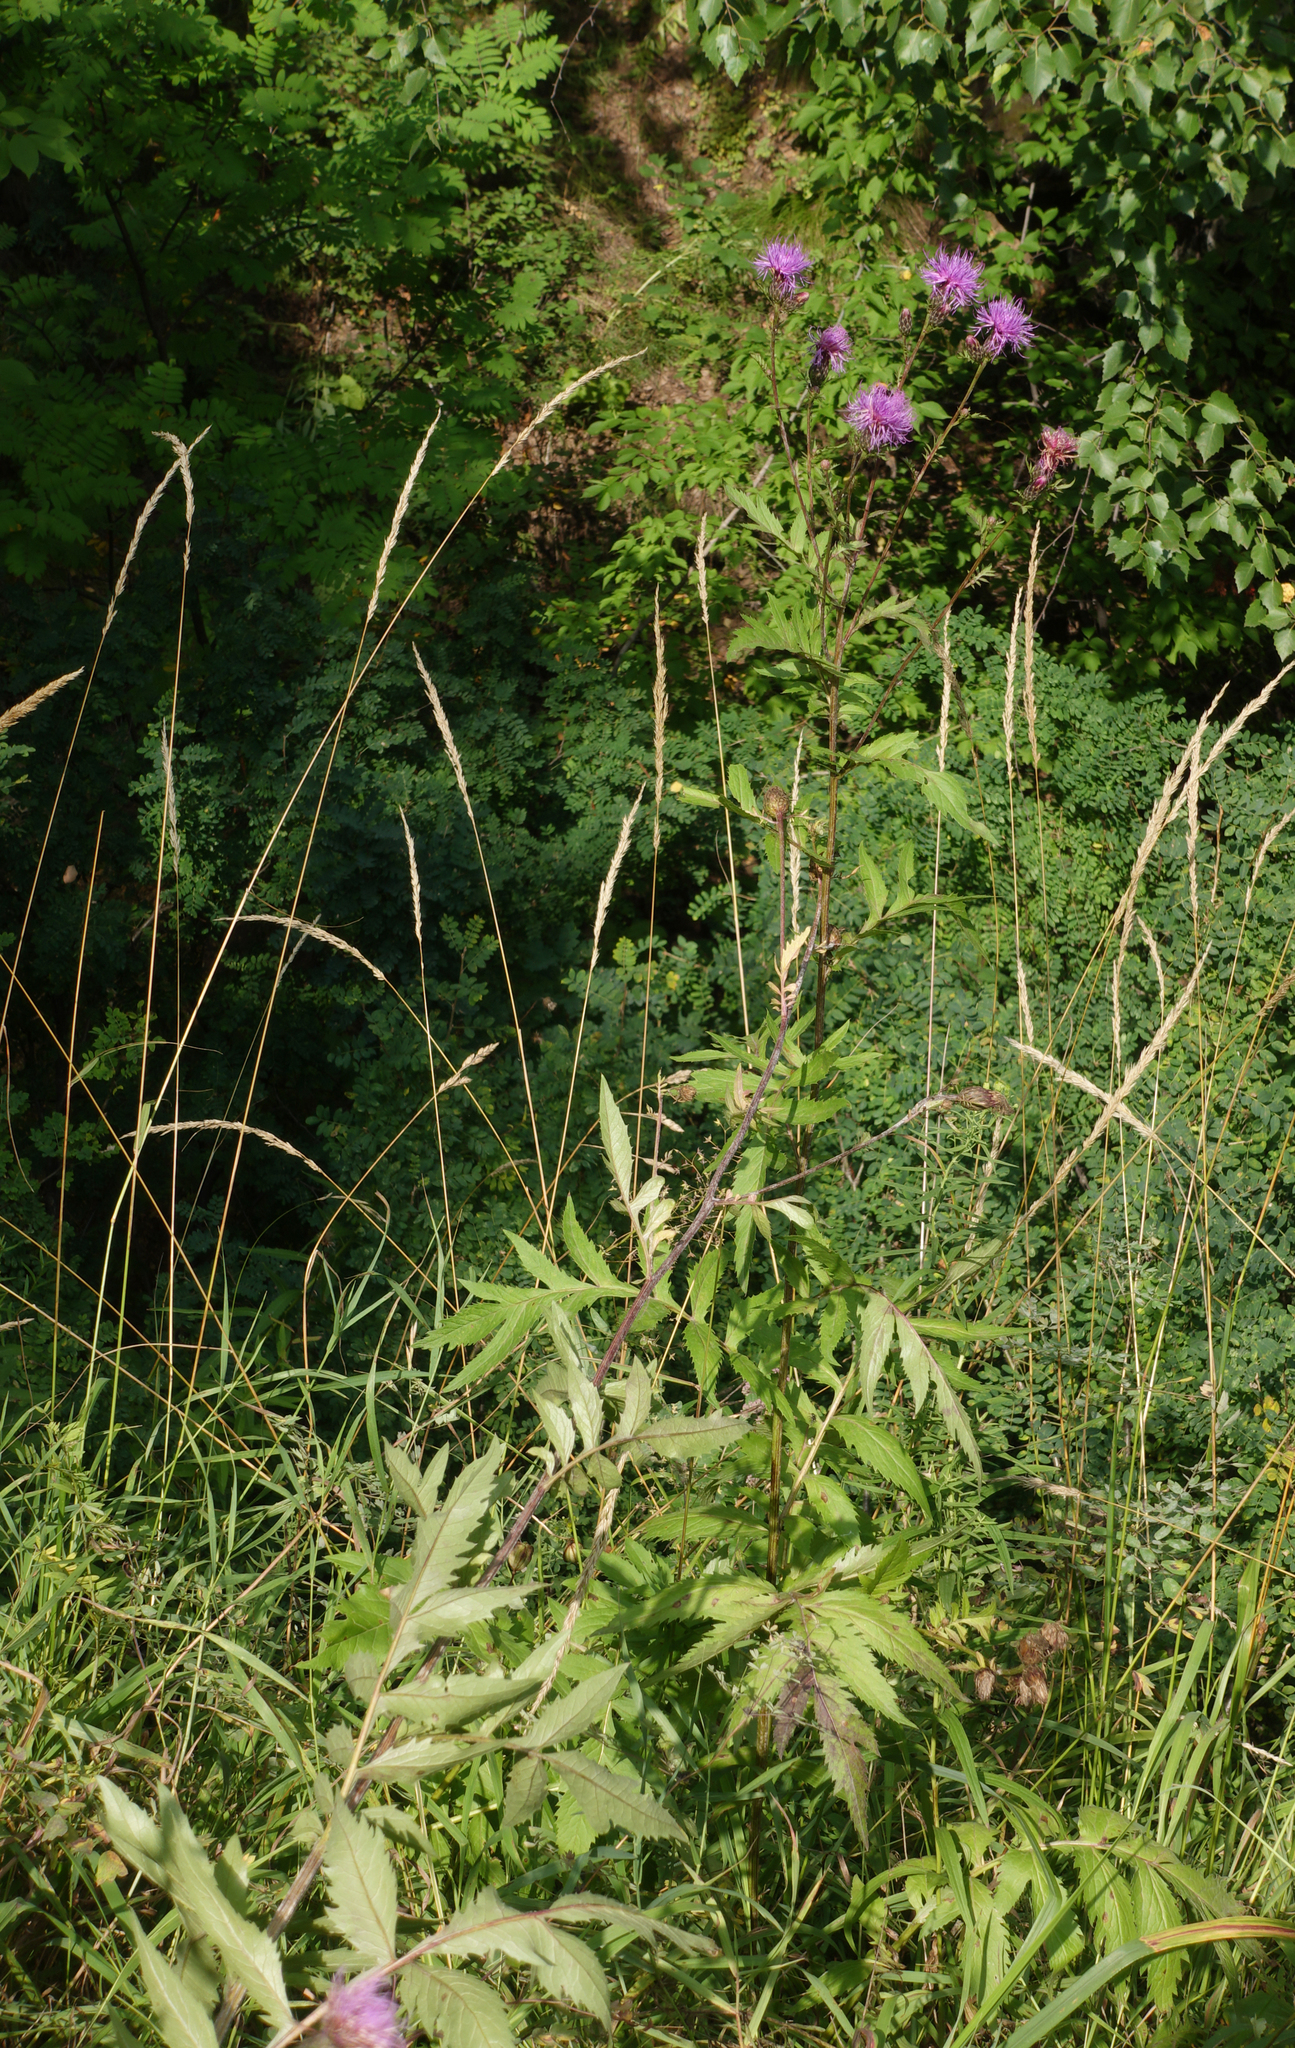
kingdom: Plantae
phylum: Tracheophyta
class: Magnoliopsida
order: Asterales
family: Asteraceae
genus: Serratula
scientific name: Serratula coronata
